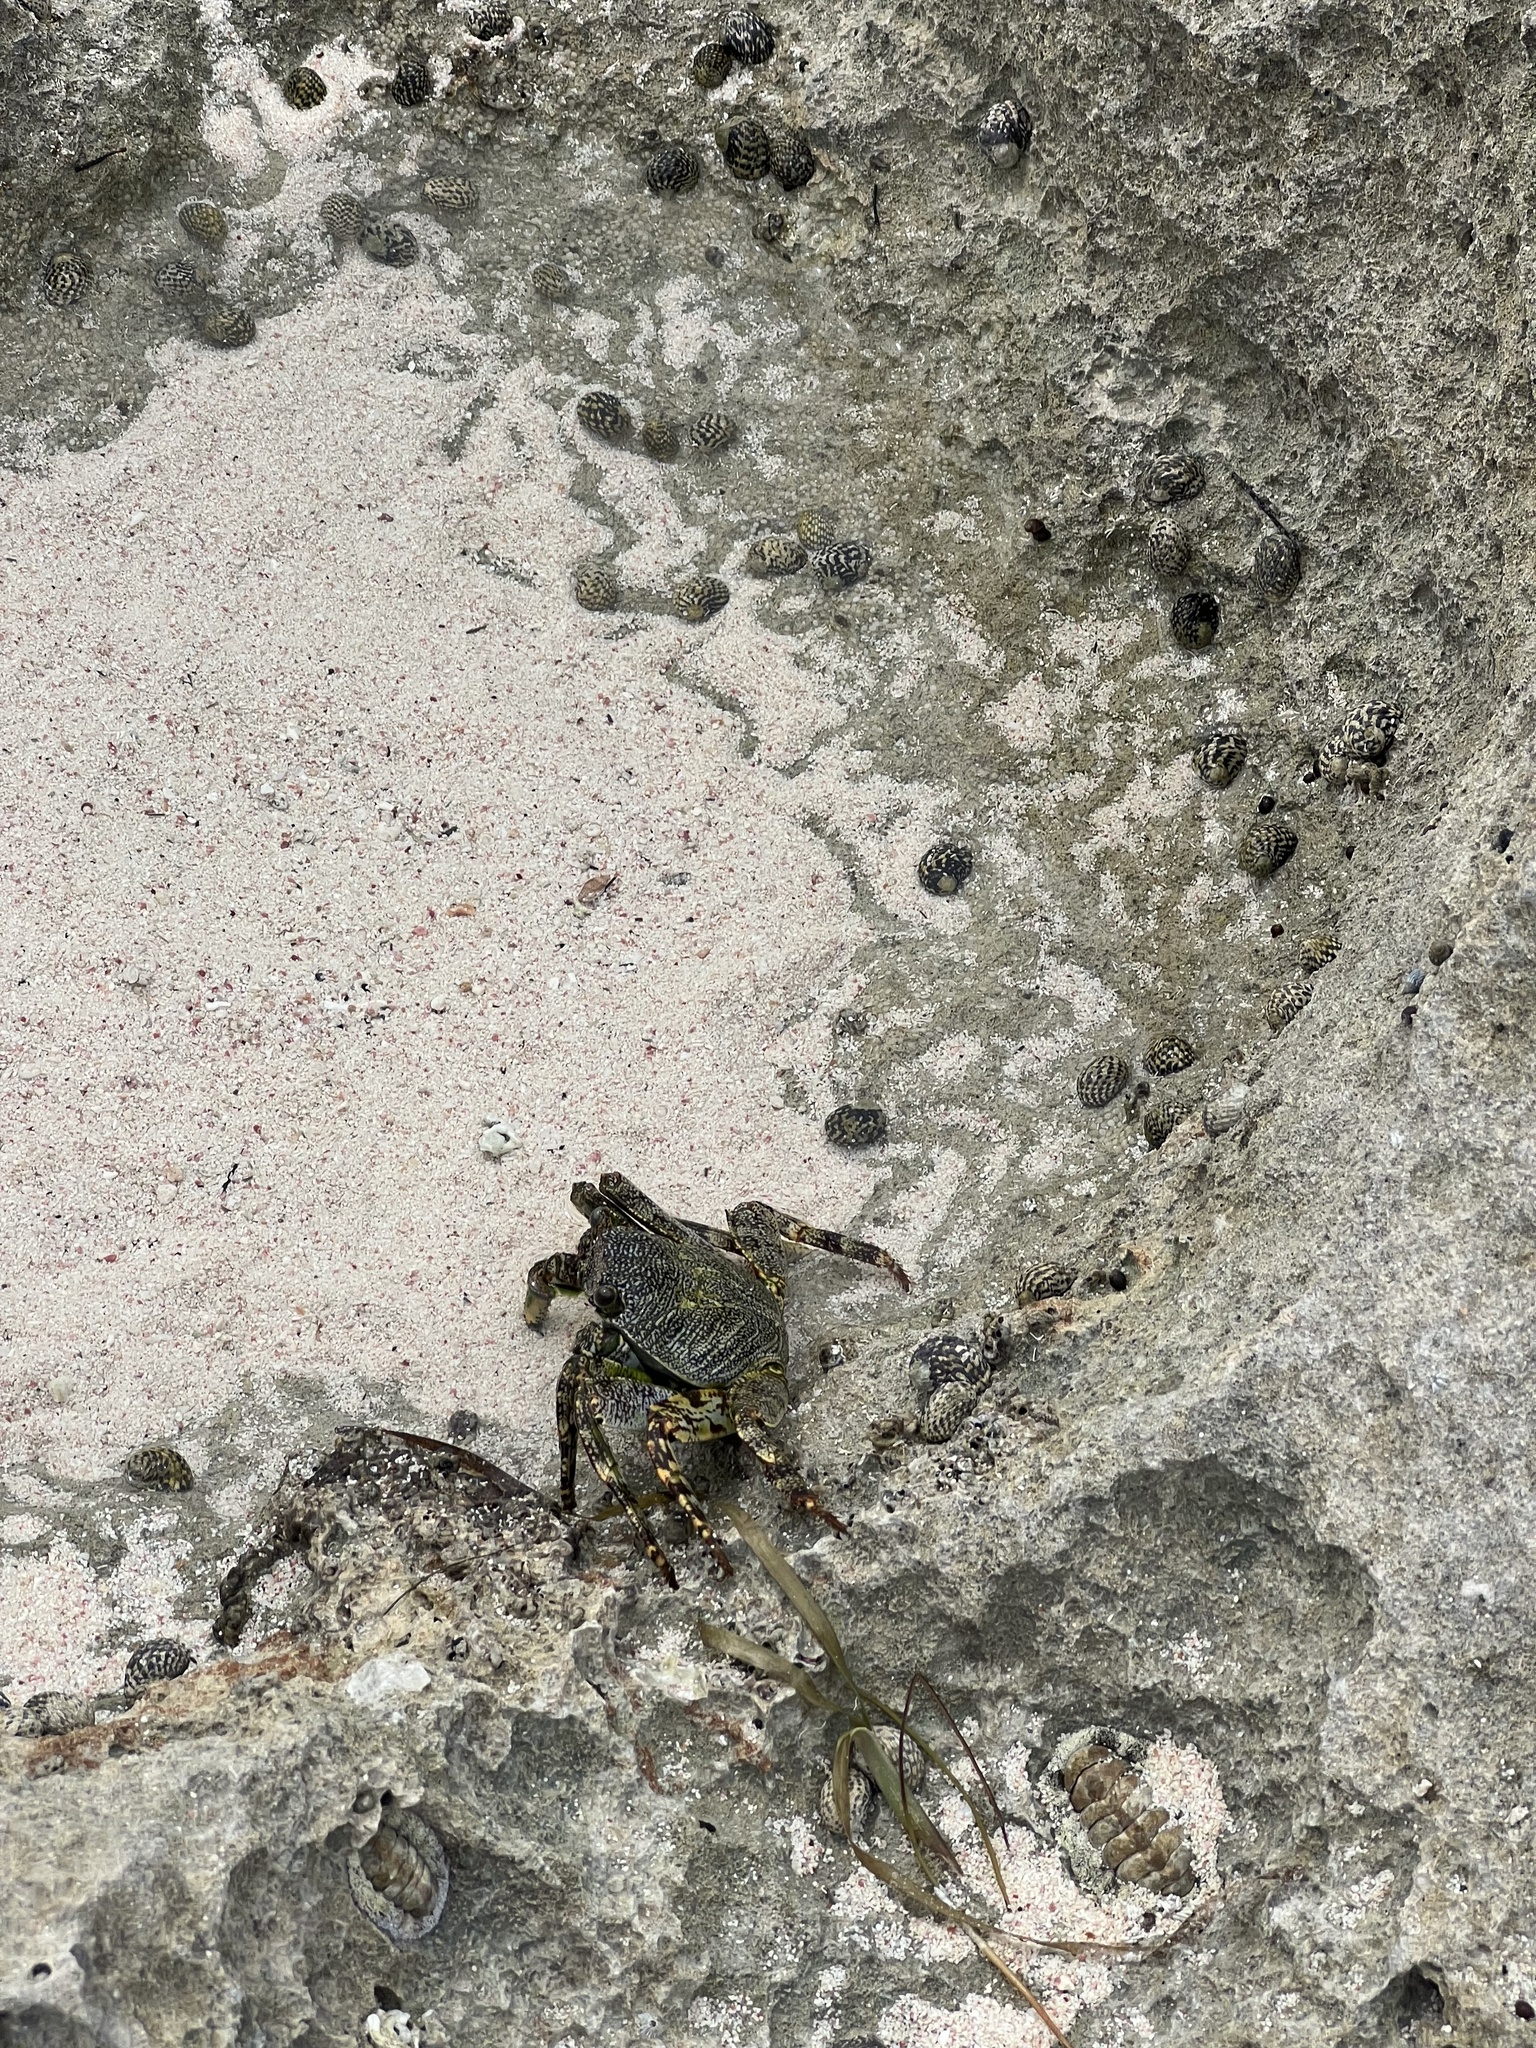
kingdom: Animalia
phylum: Arthropoda
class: Malacostraca
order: Decapoda
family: Grapsidae
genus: Grapsus
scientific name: Grapsus grapsus
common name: Sally lightfoot
